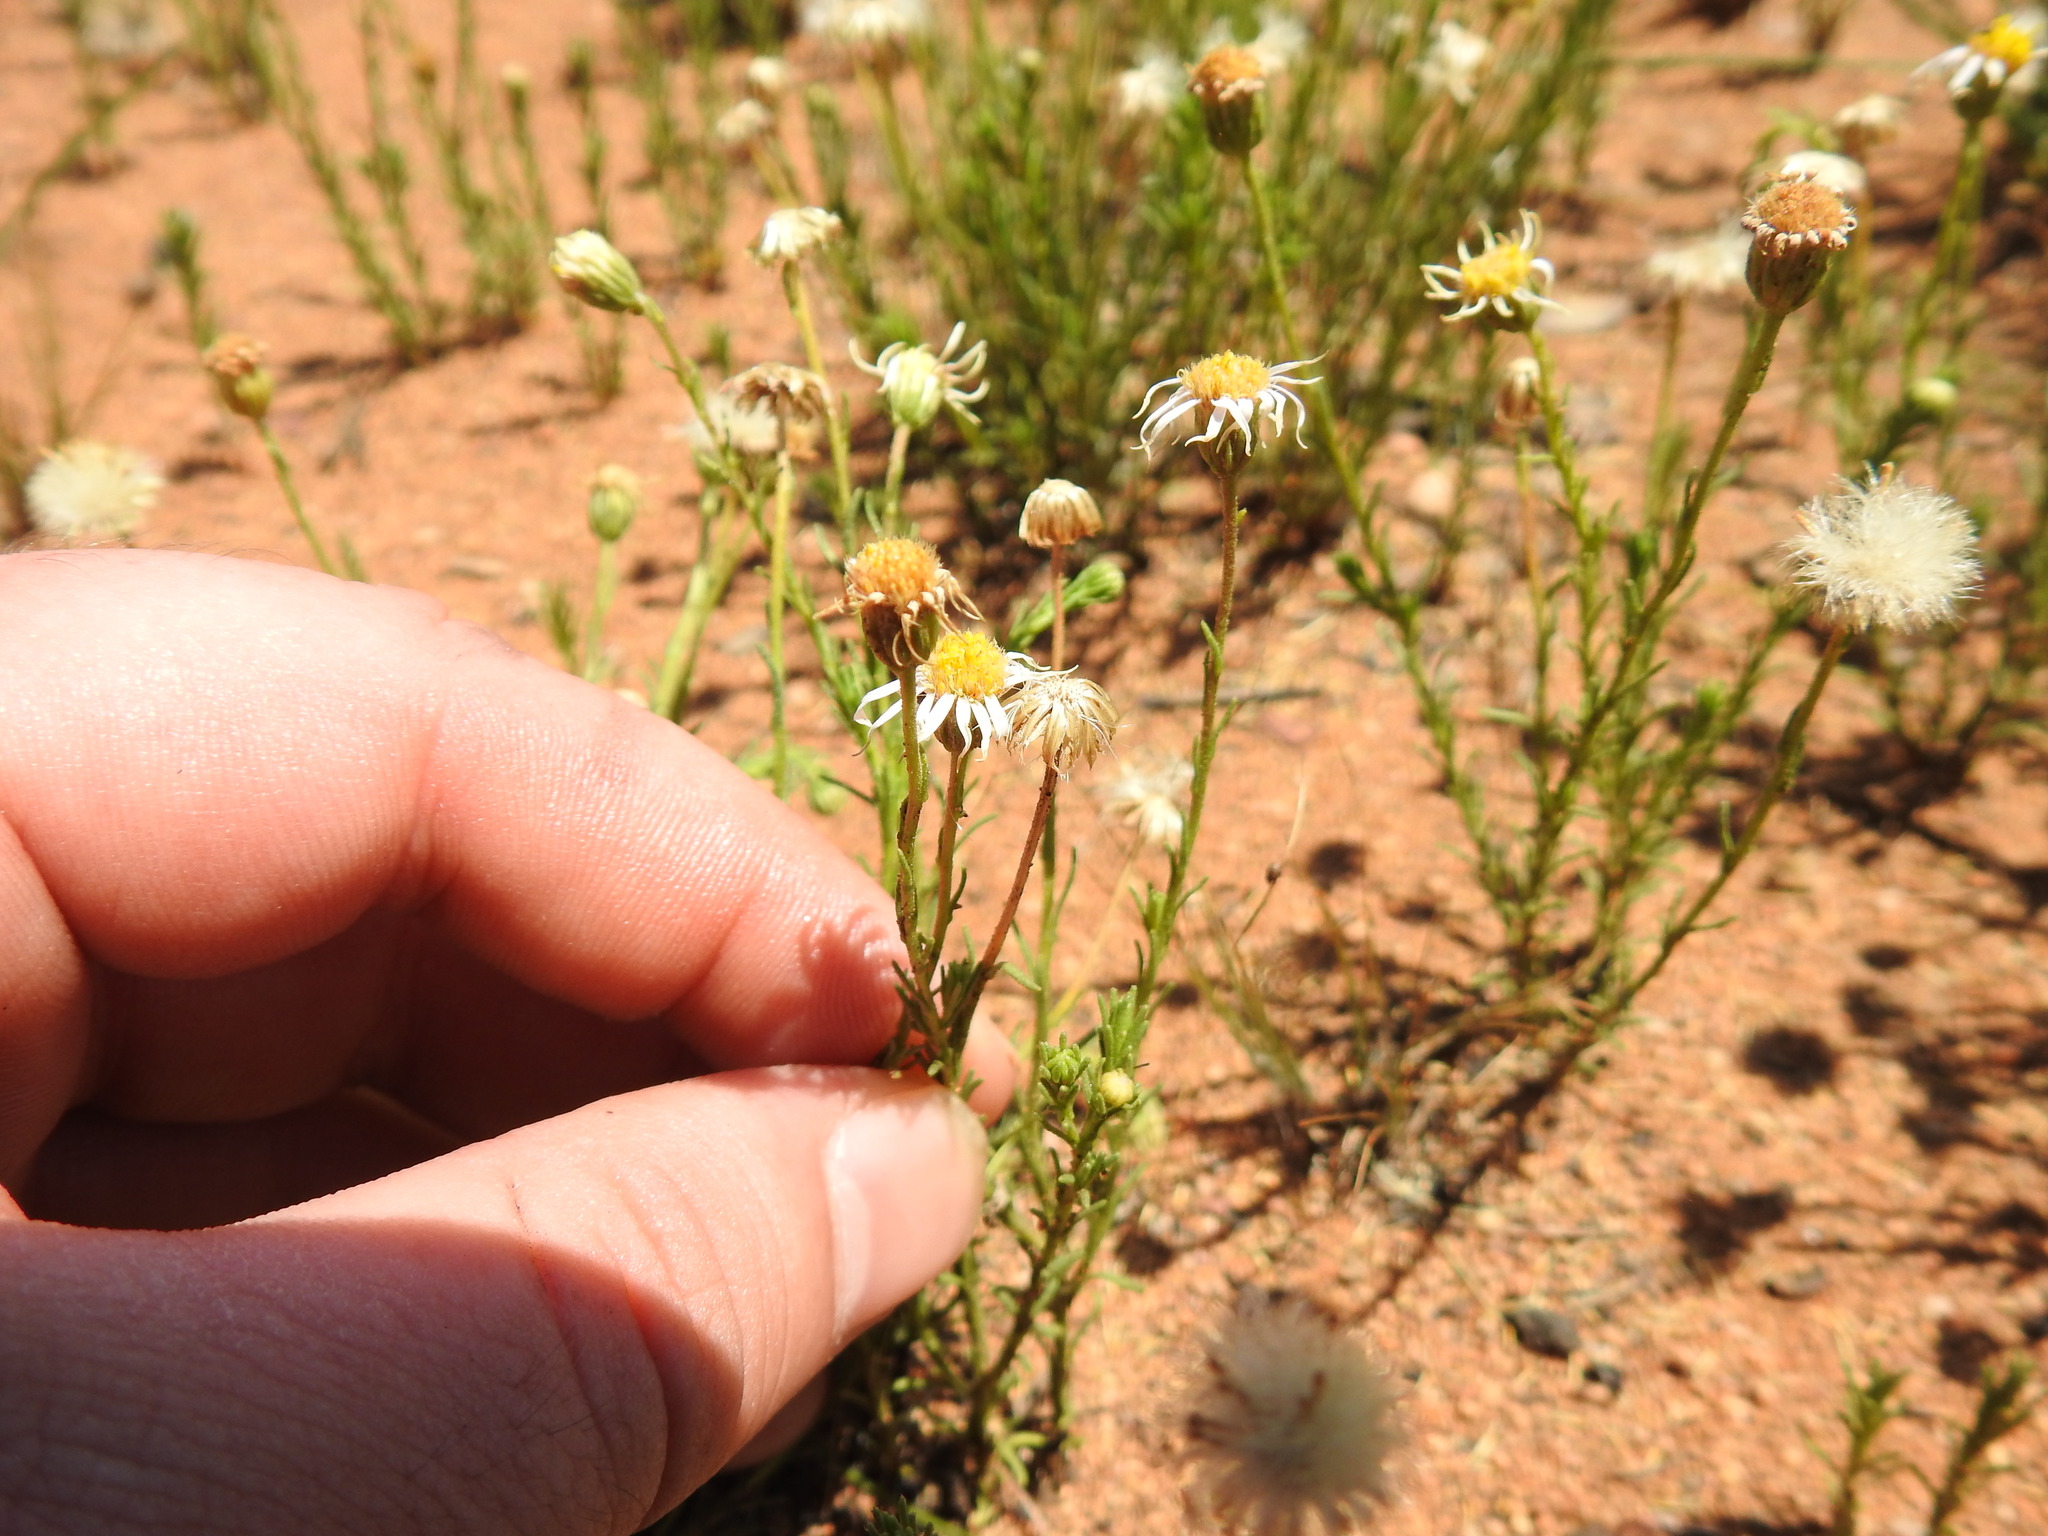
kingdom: Plantae
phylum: Tracheophyta
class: Magnoliopsida
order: Asterales
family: Asteraceae
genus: Felicia
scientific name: Felicia muricata
